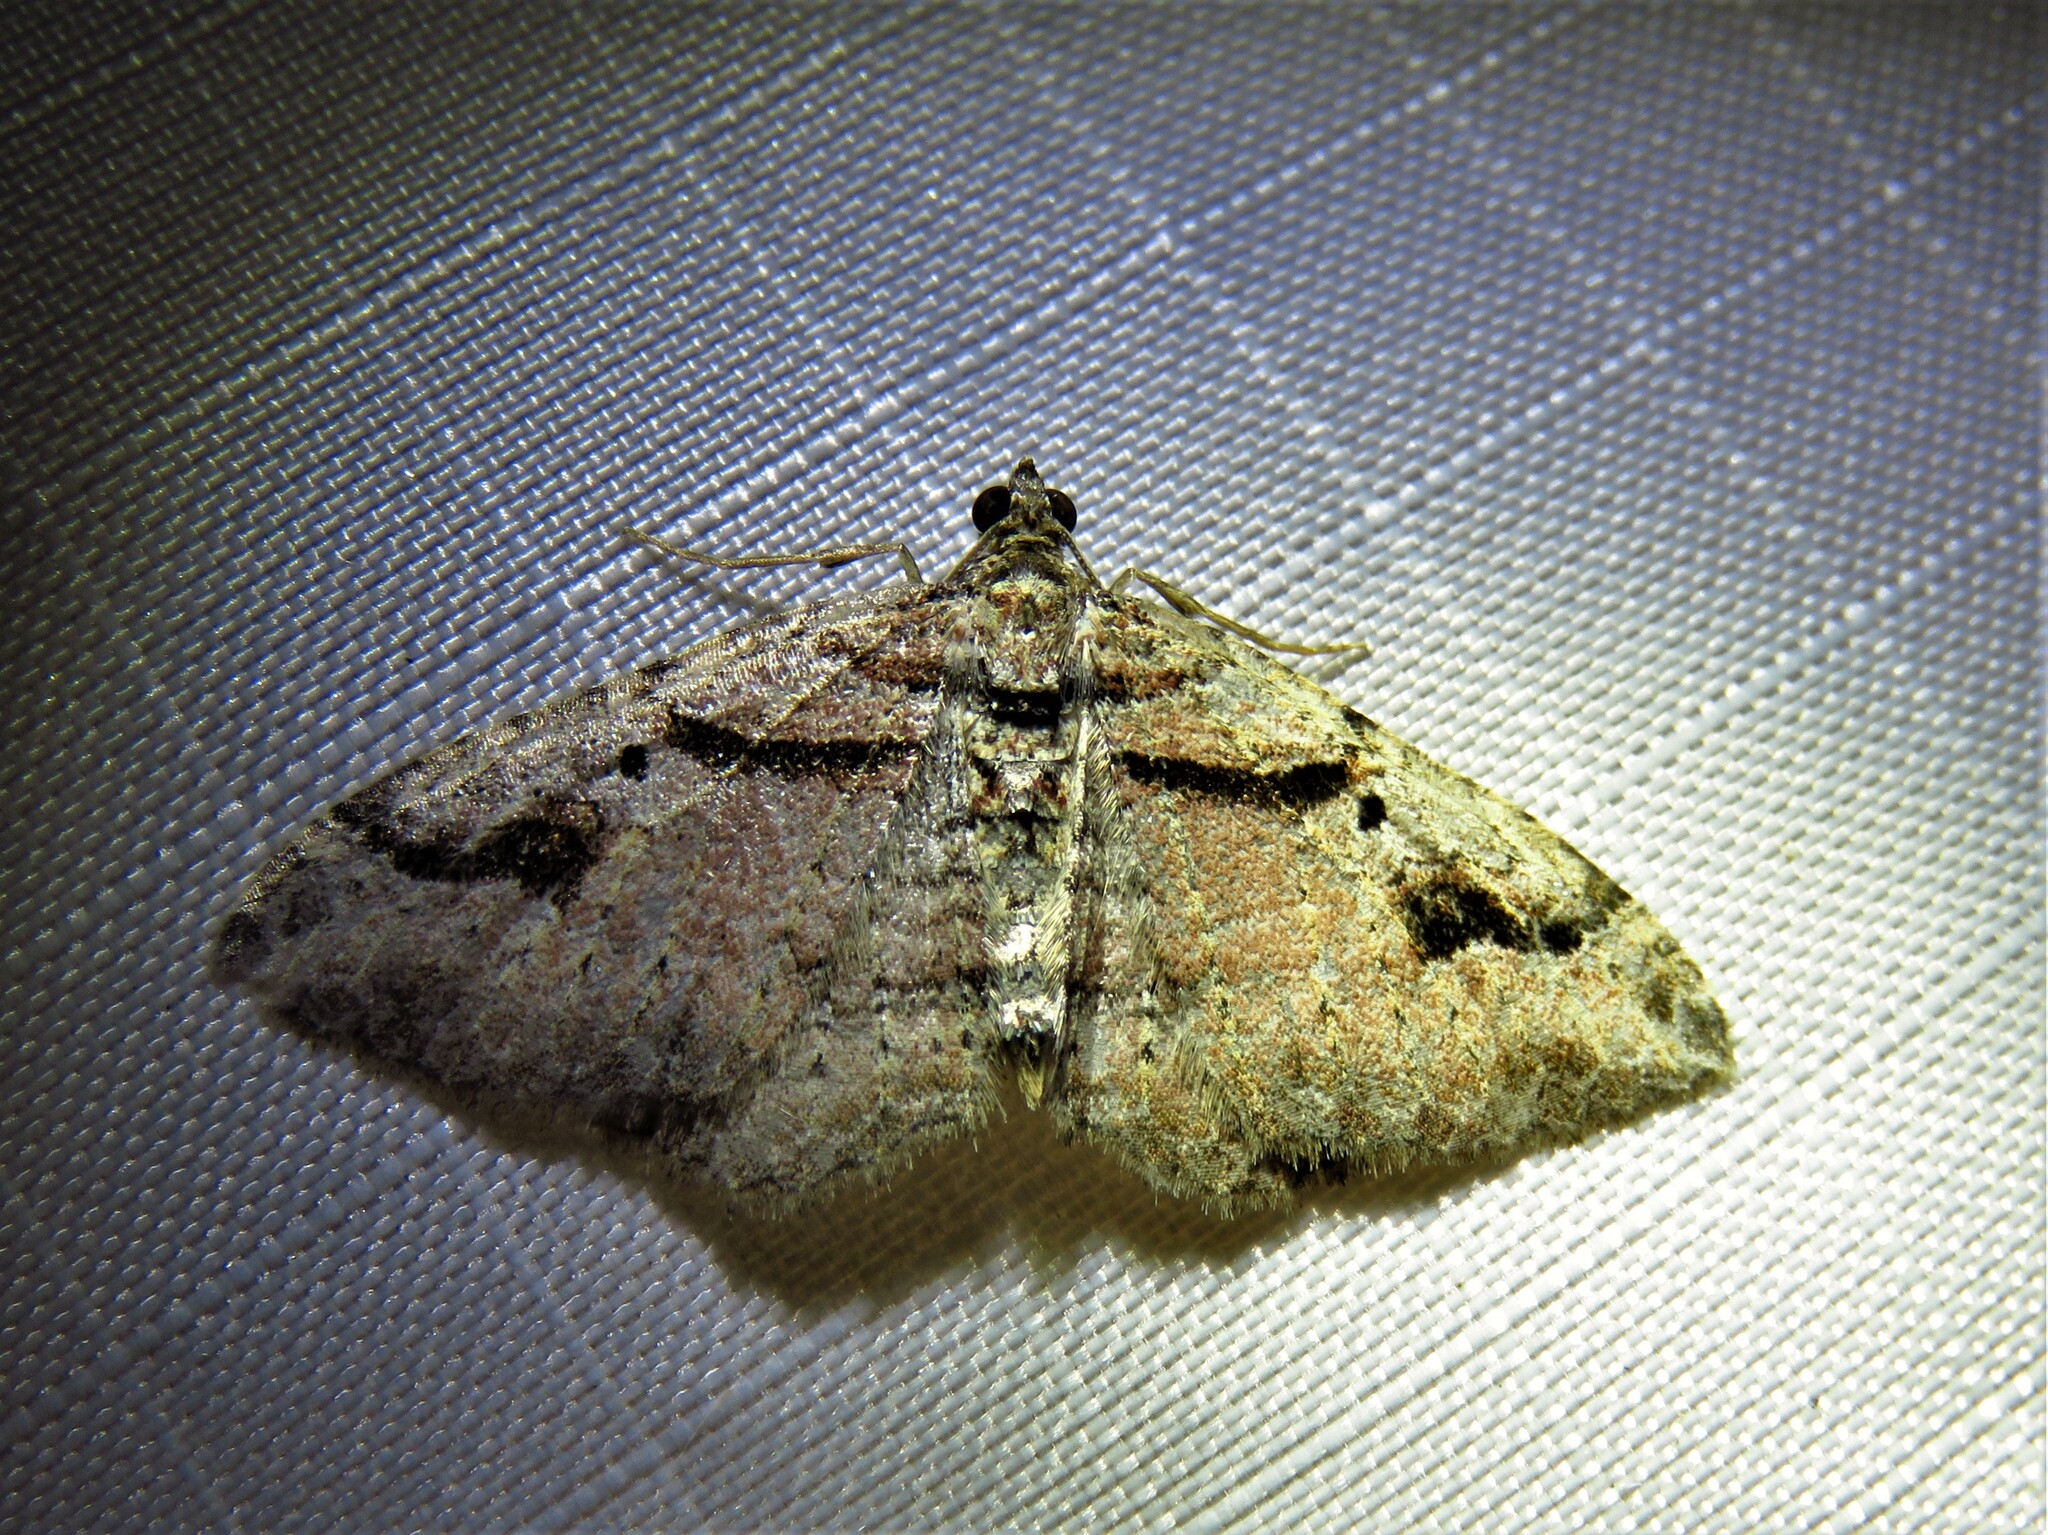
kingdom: Animalia
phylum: Arthropoda
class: Insecta
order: Lepidoptera
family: Geometridae
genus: Costaconvexa
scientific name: Costaconvexa centrostrigaria
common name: Bent-line carpet
